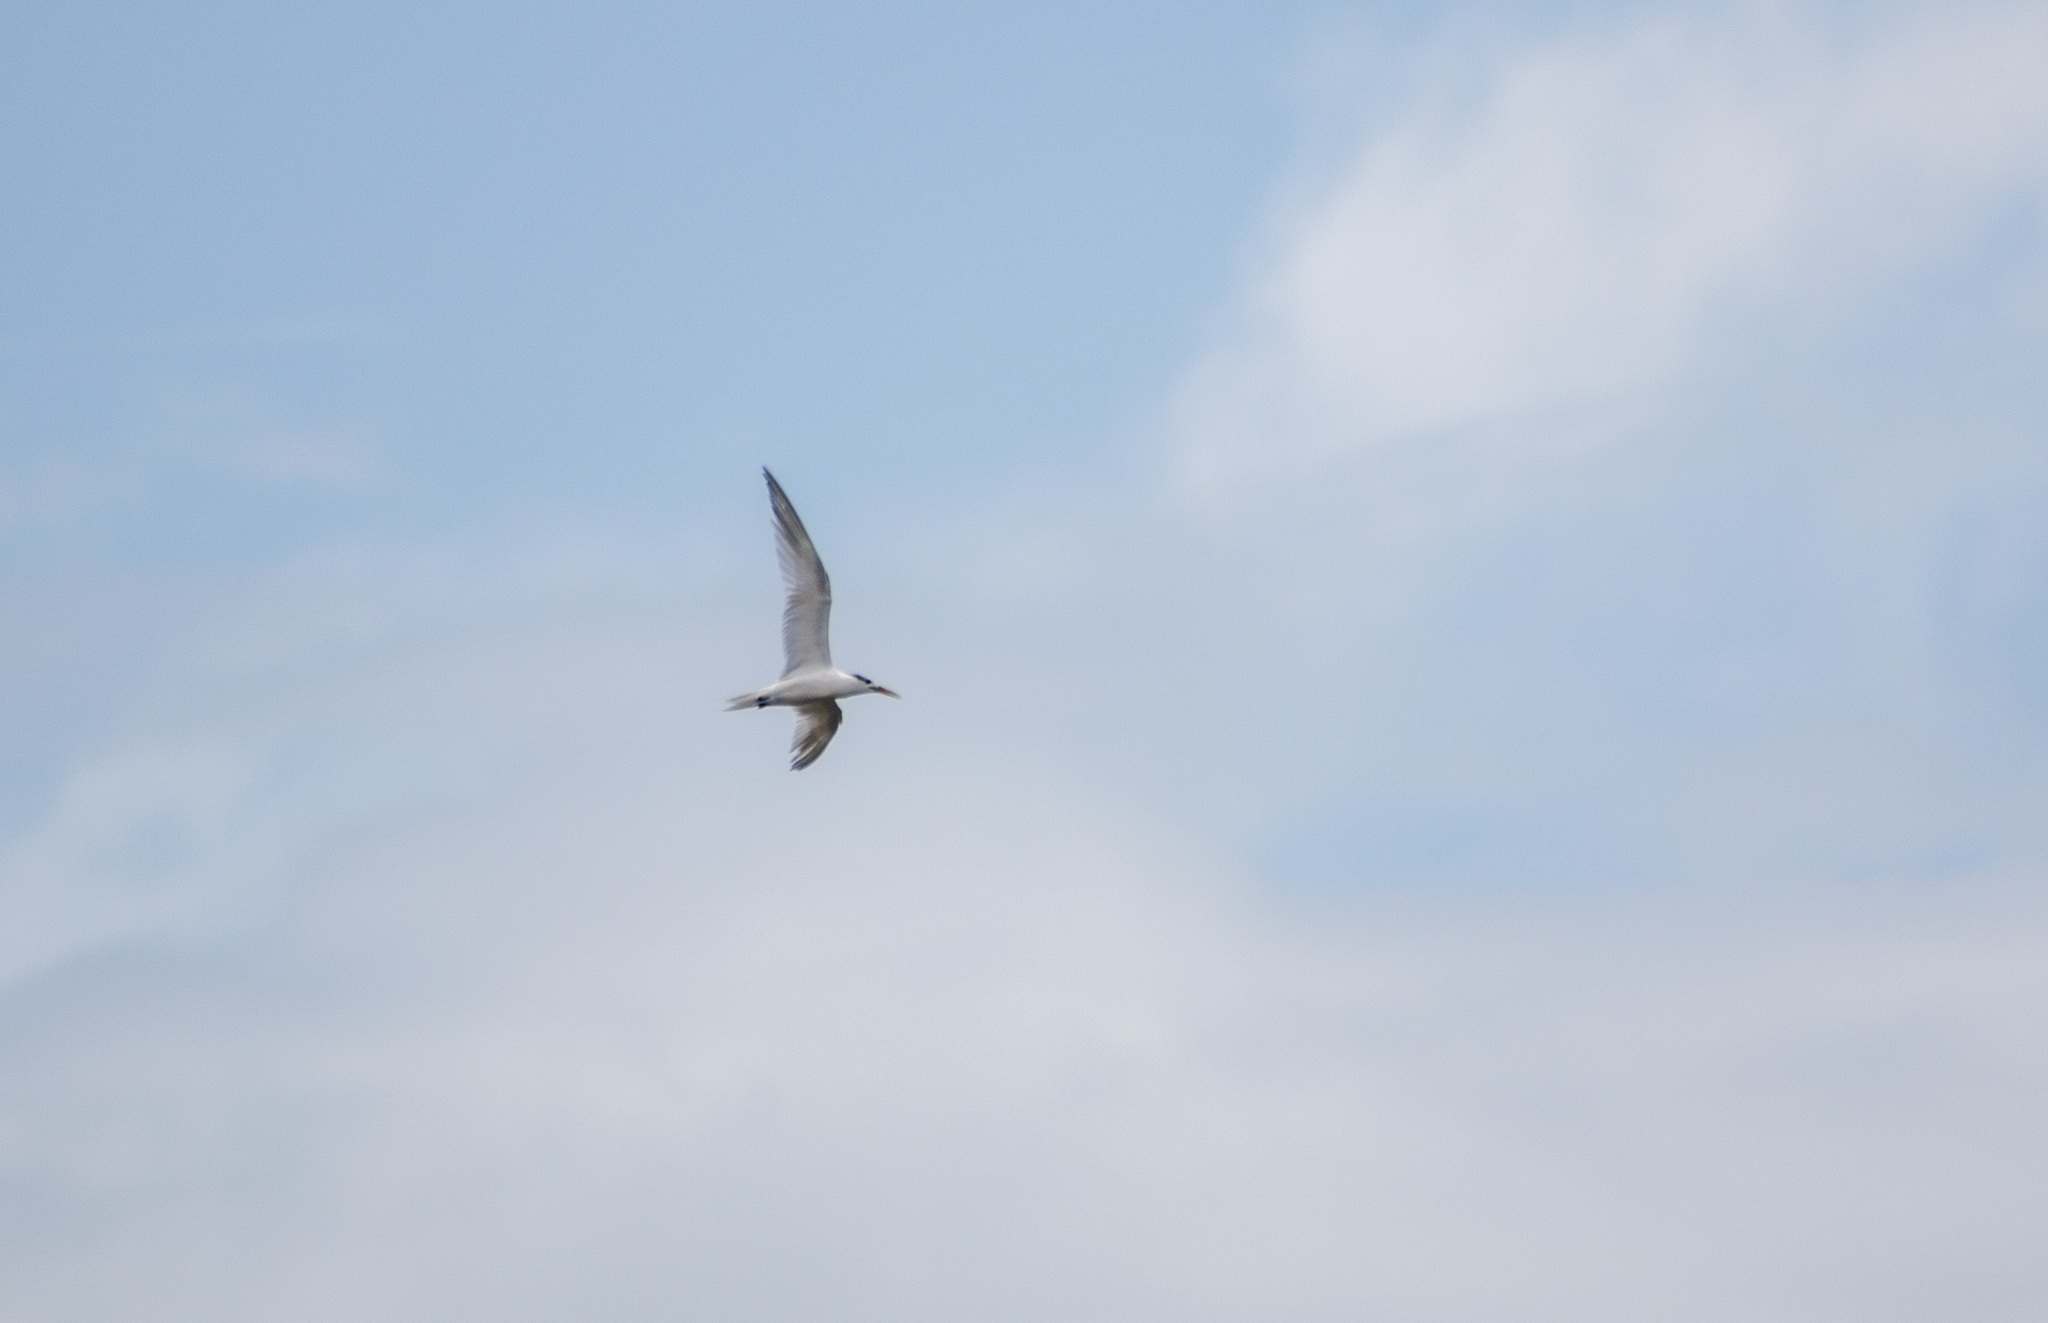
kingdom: Animalia
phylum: Chordata
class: Aves
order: Charadriiformes
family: Laridae
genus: Thalasseus
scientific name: Thalasseus sandvicensis
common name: Sandwich tern
